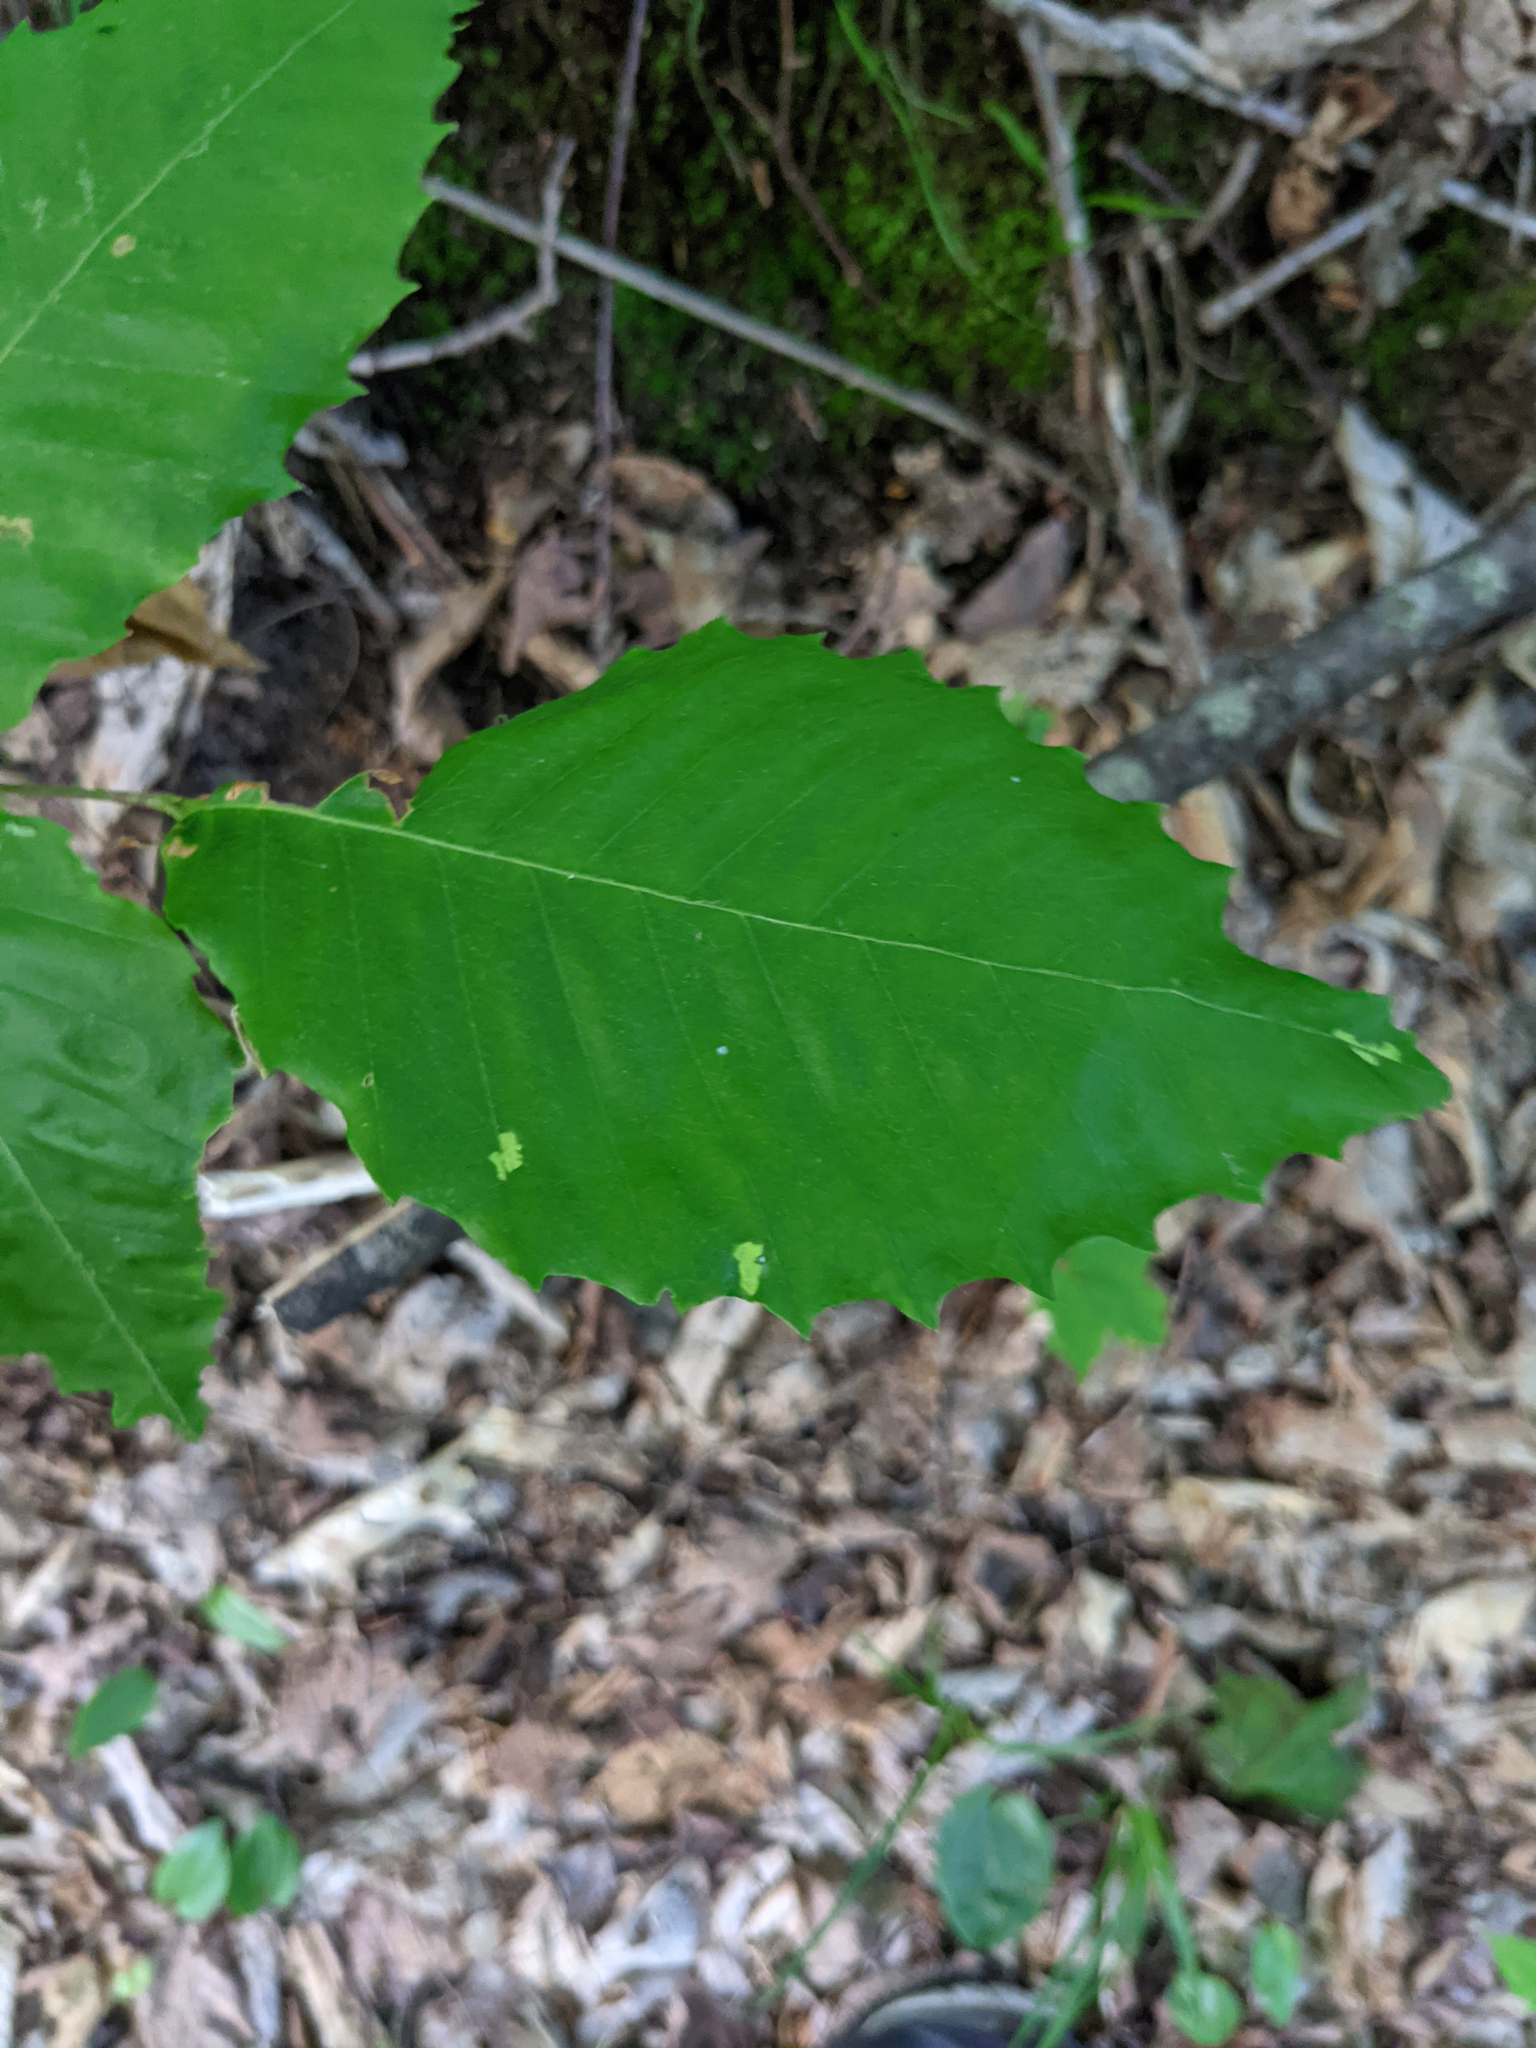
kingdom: Plantae
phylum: Tracheophyta
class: Magnoliopsida
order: Fagales
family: Fagaceae
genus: Fagus
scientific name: Fagus grandifolia
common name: American beech
